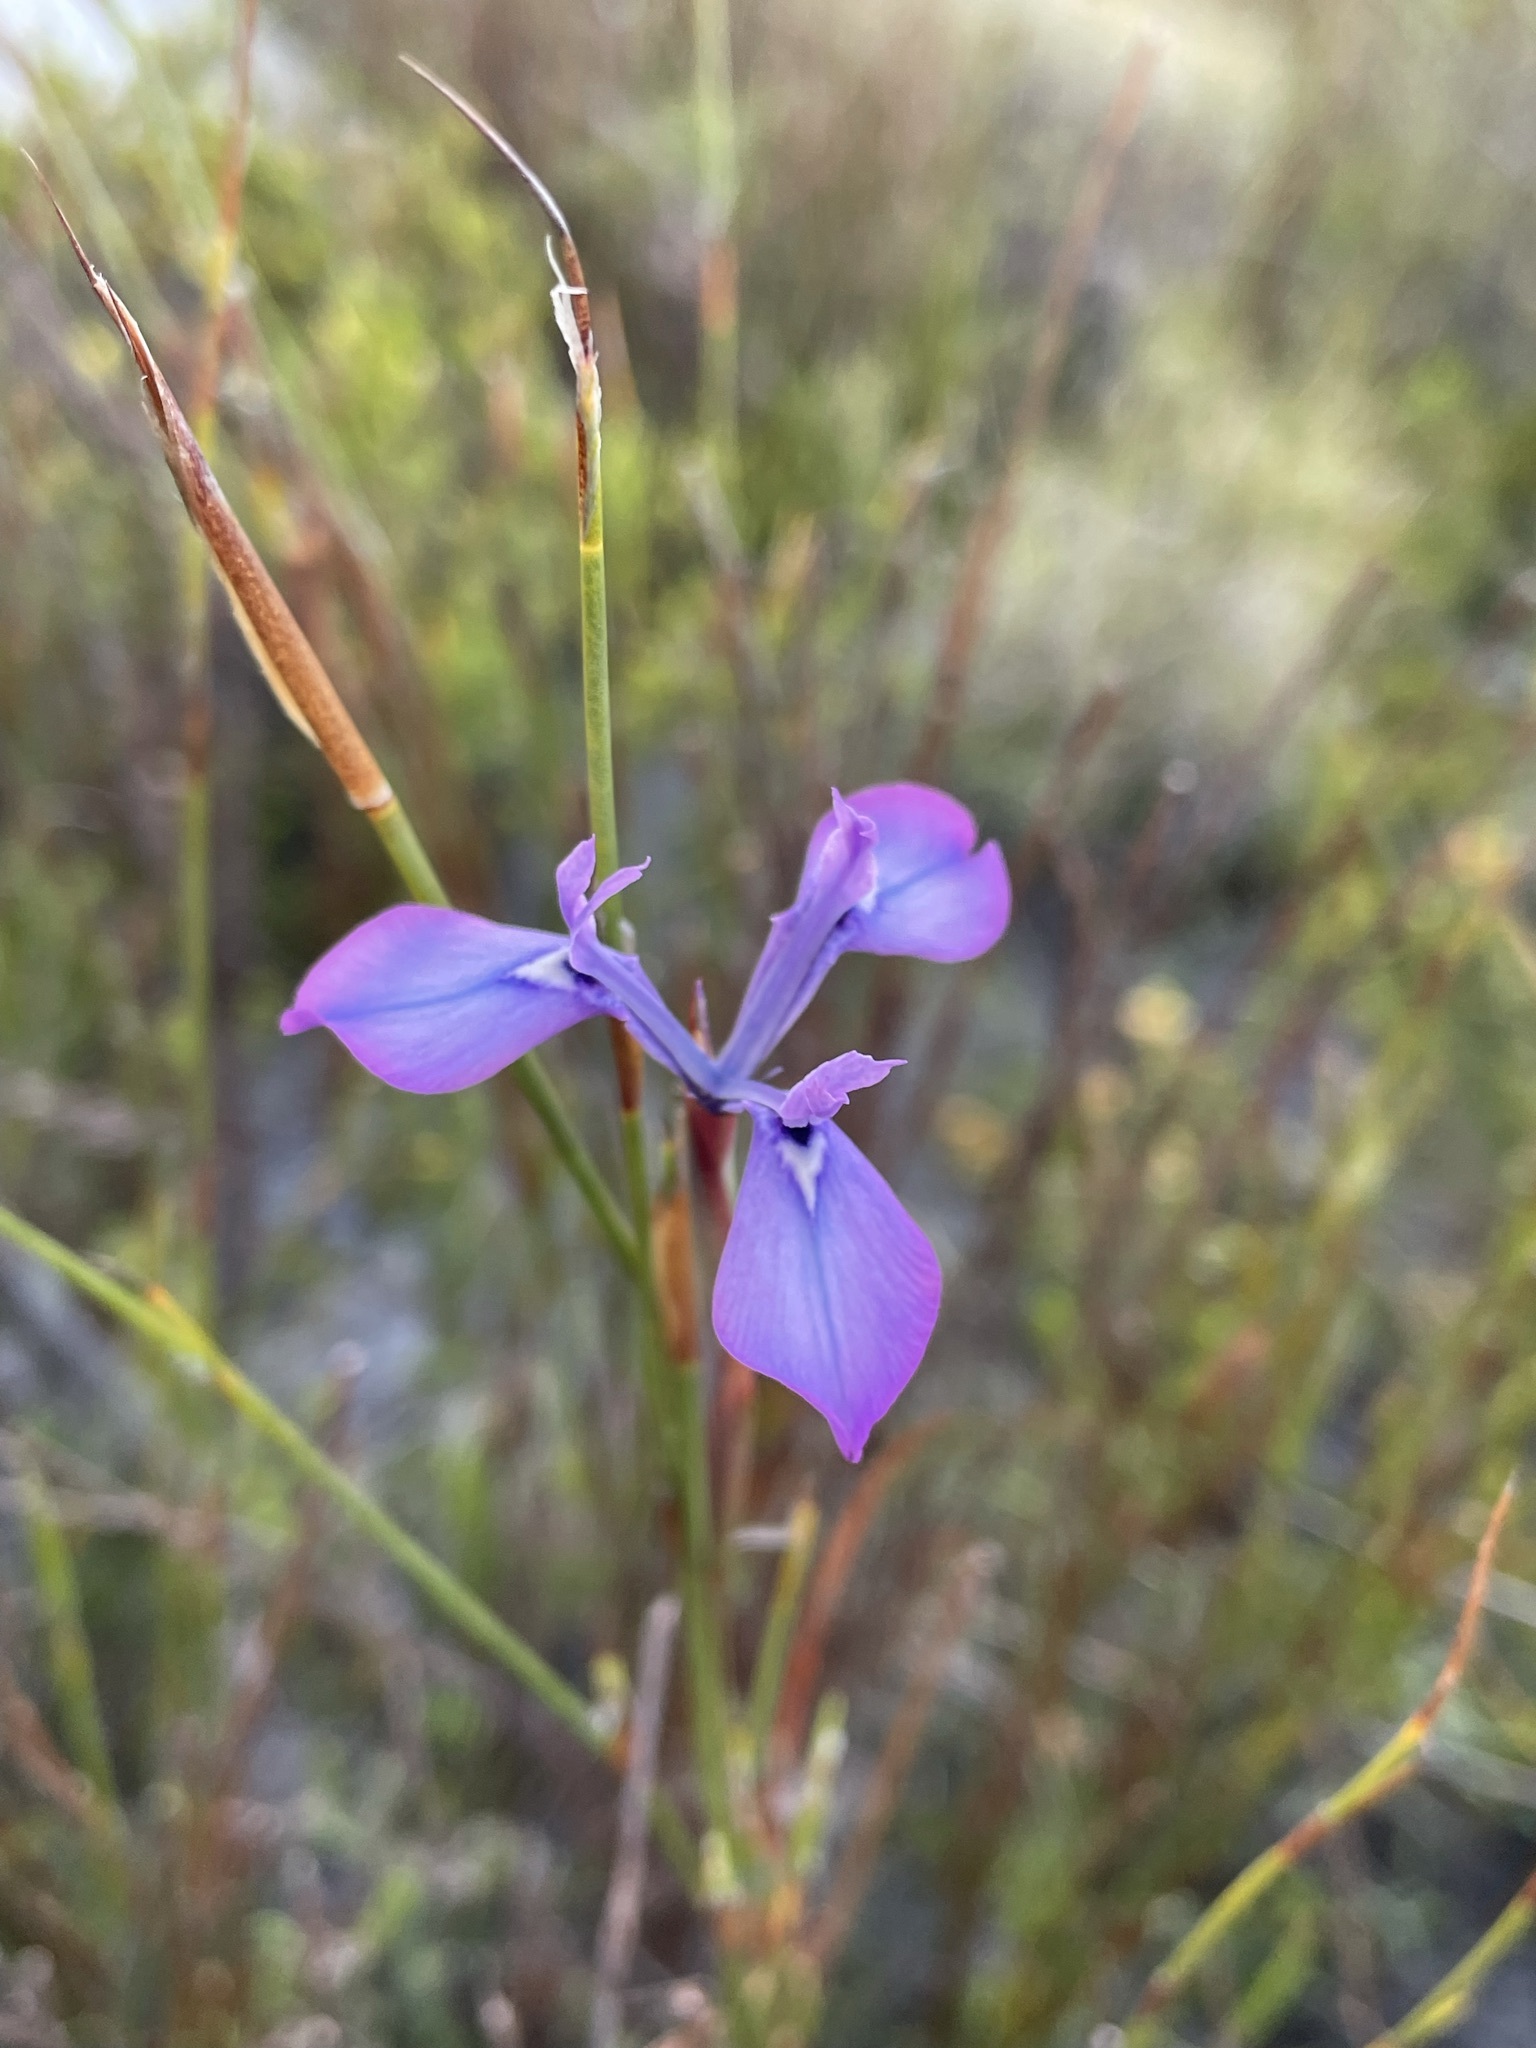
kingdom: Plantae
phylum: Tracheophyta
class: Liliopsida
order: Asparagales
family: Iridaceae
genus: Moraea
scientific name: Moraea tripetala
